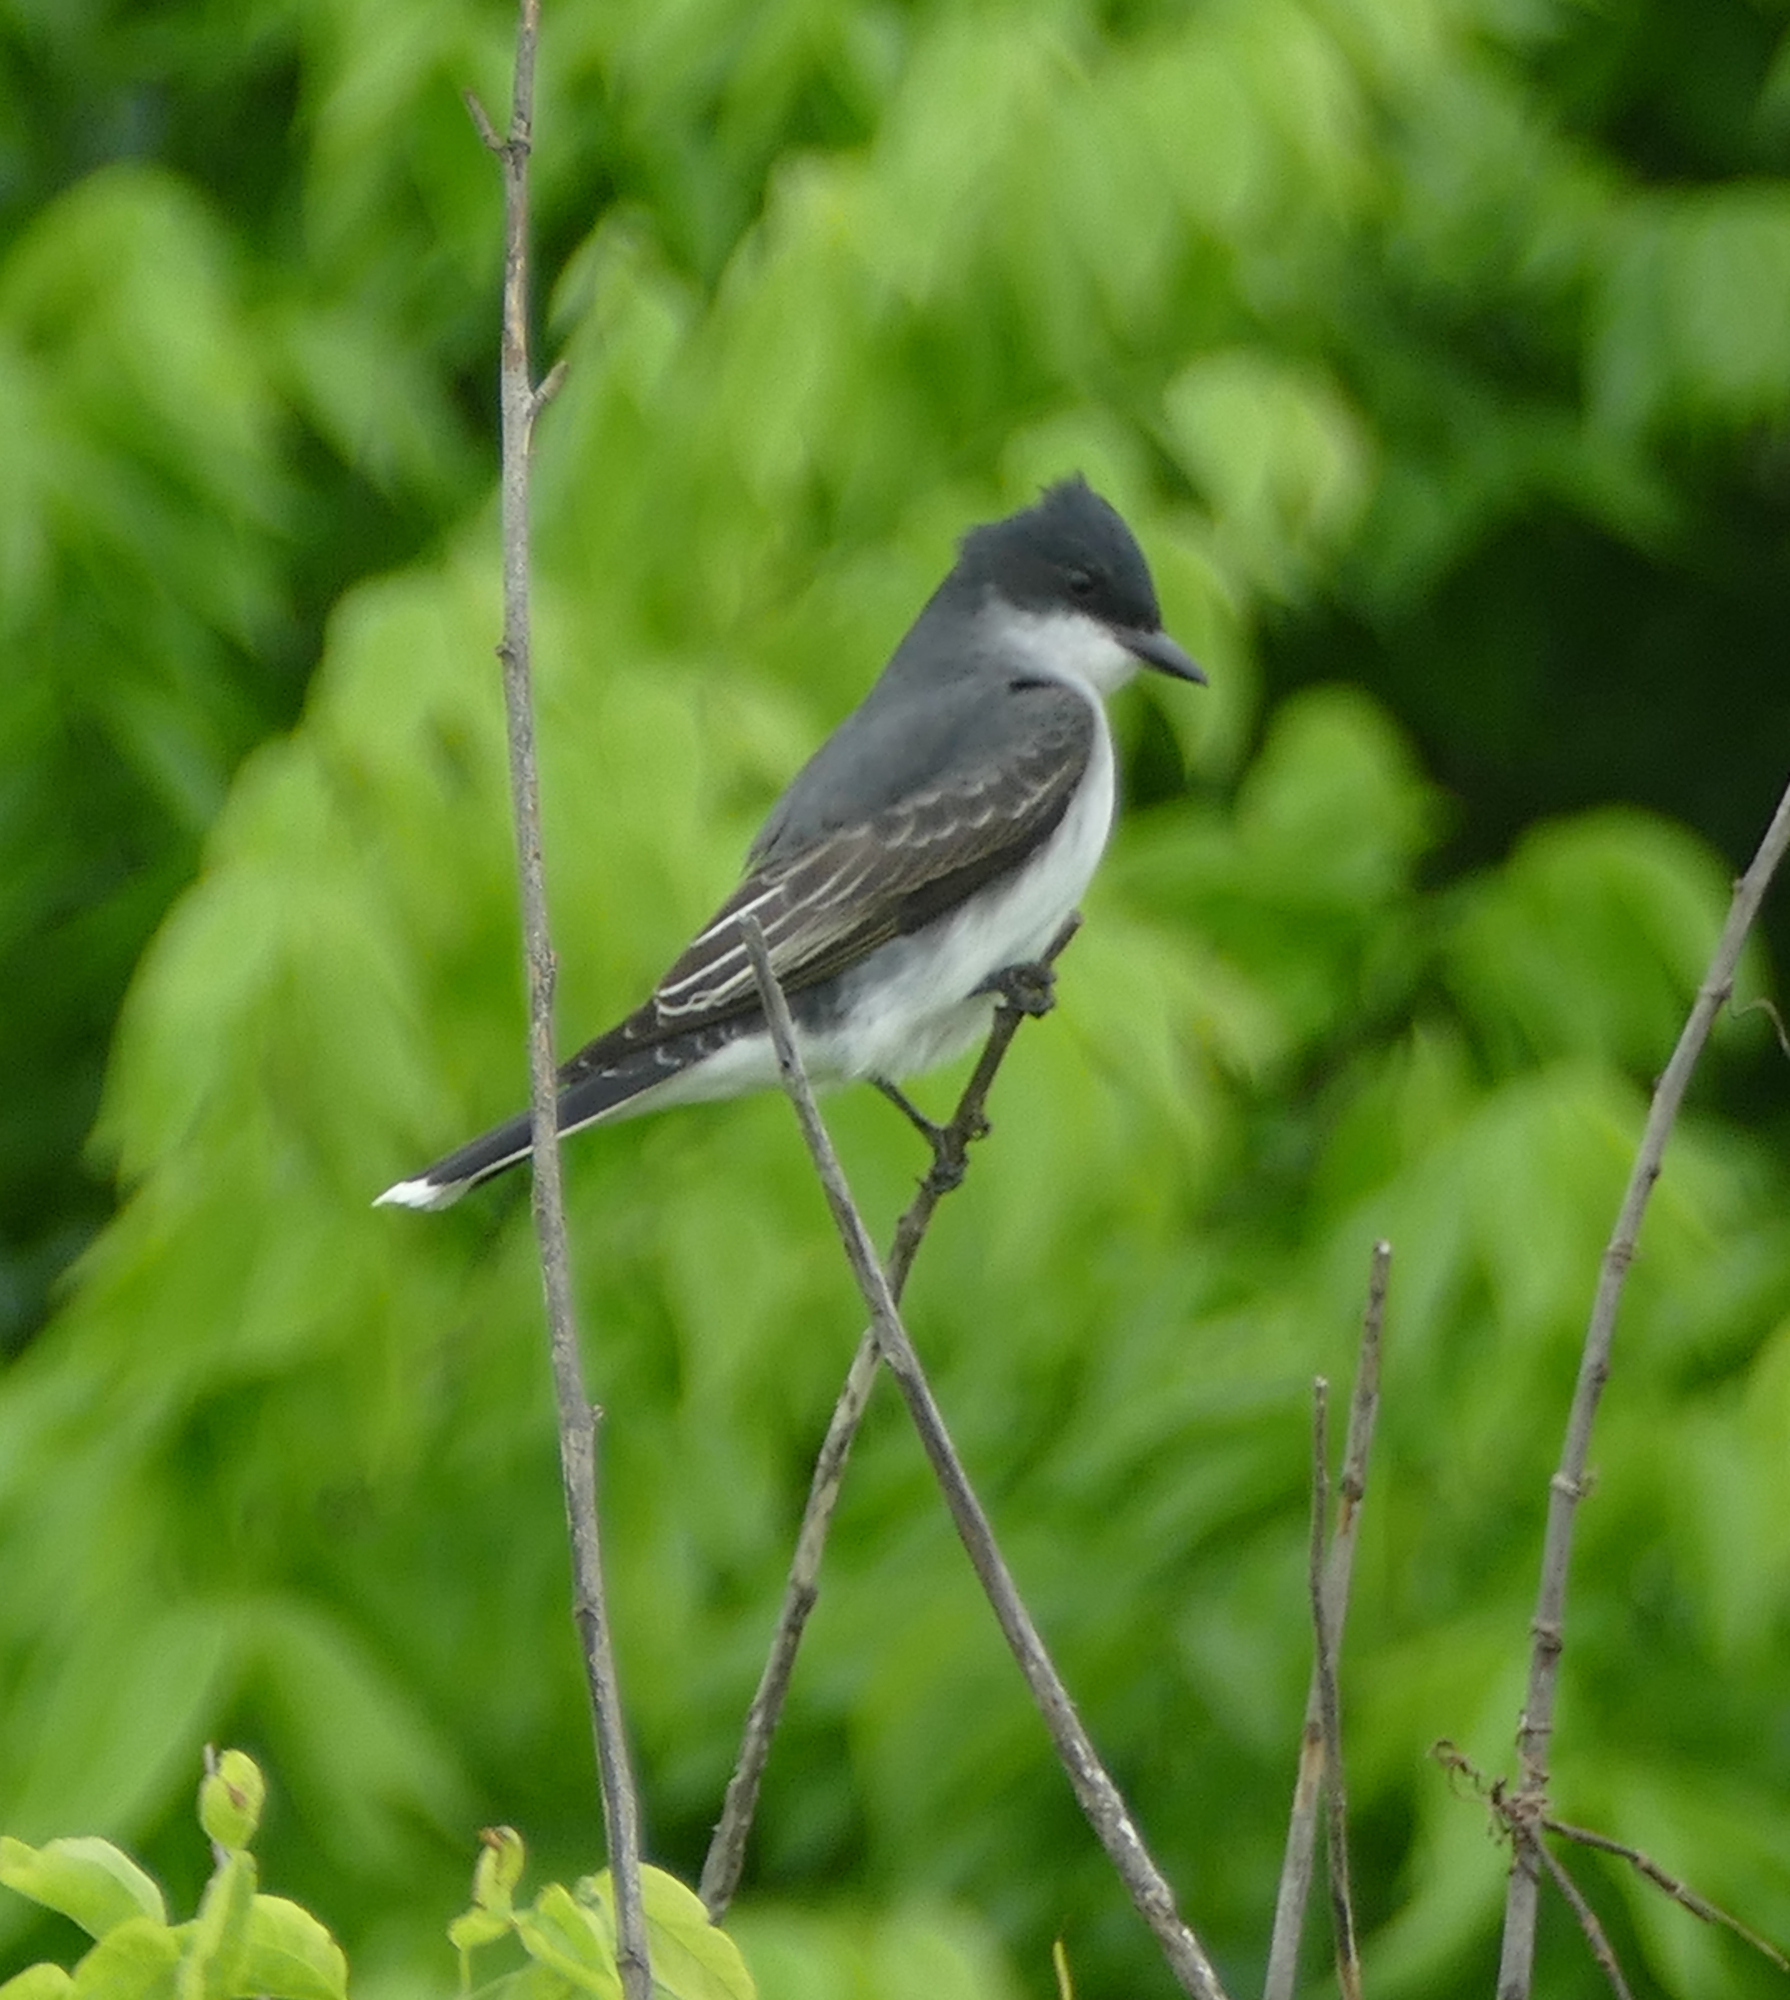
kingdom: Animalia
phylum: Chordata
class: Aves
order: Passeriformes
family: Tyrannidae
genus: Tyrannus
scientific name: Tyrannus tyrannus
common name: Eastern kingbird
